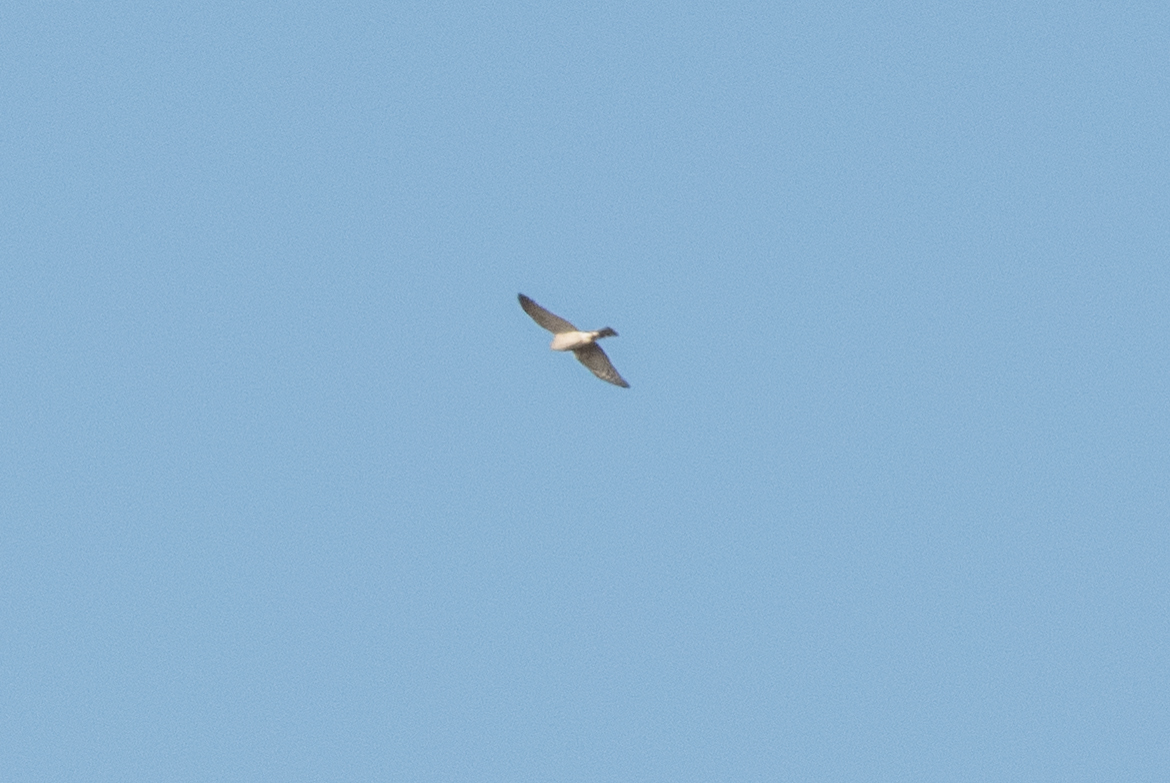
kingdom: Animalia
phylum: Chordata
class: Aves
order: Accipitriformes
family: Accipitridae
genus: Accipiter
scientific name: Accipiter nisus
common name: Eurasian sparrowhawk
